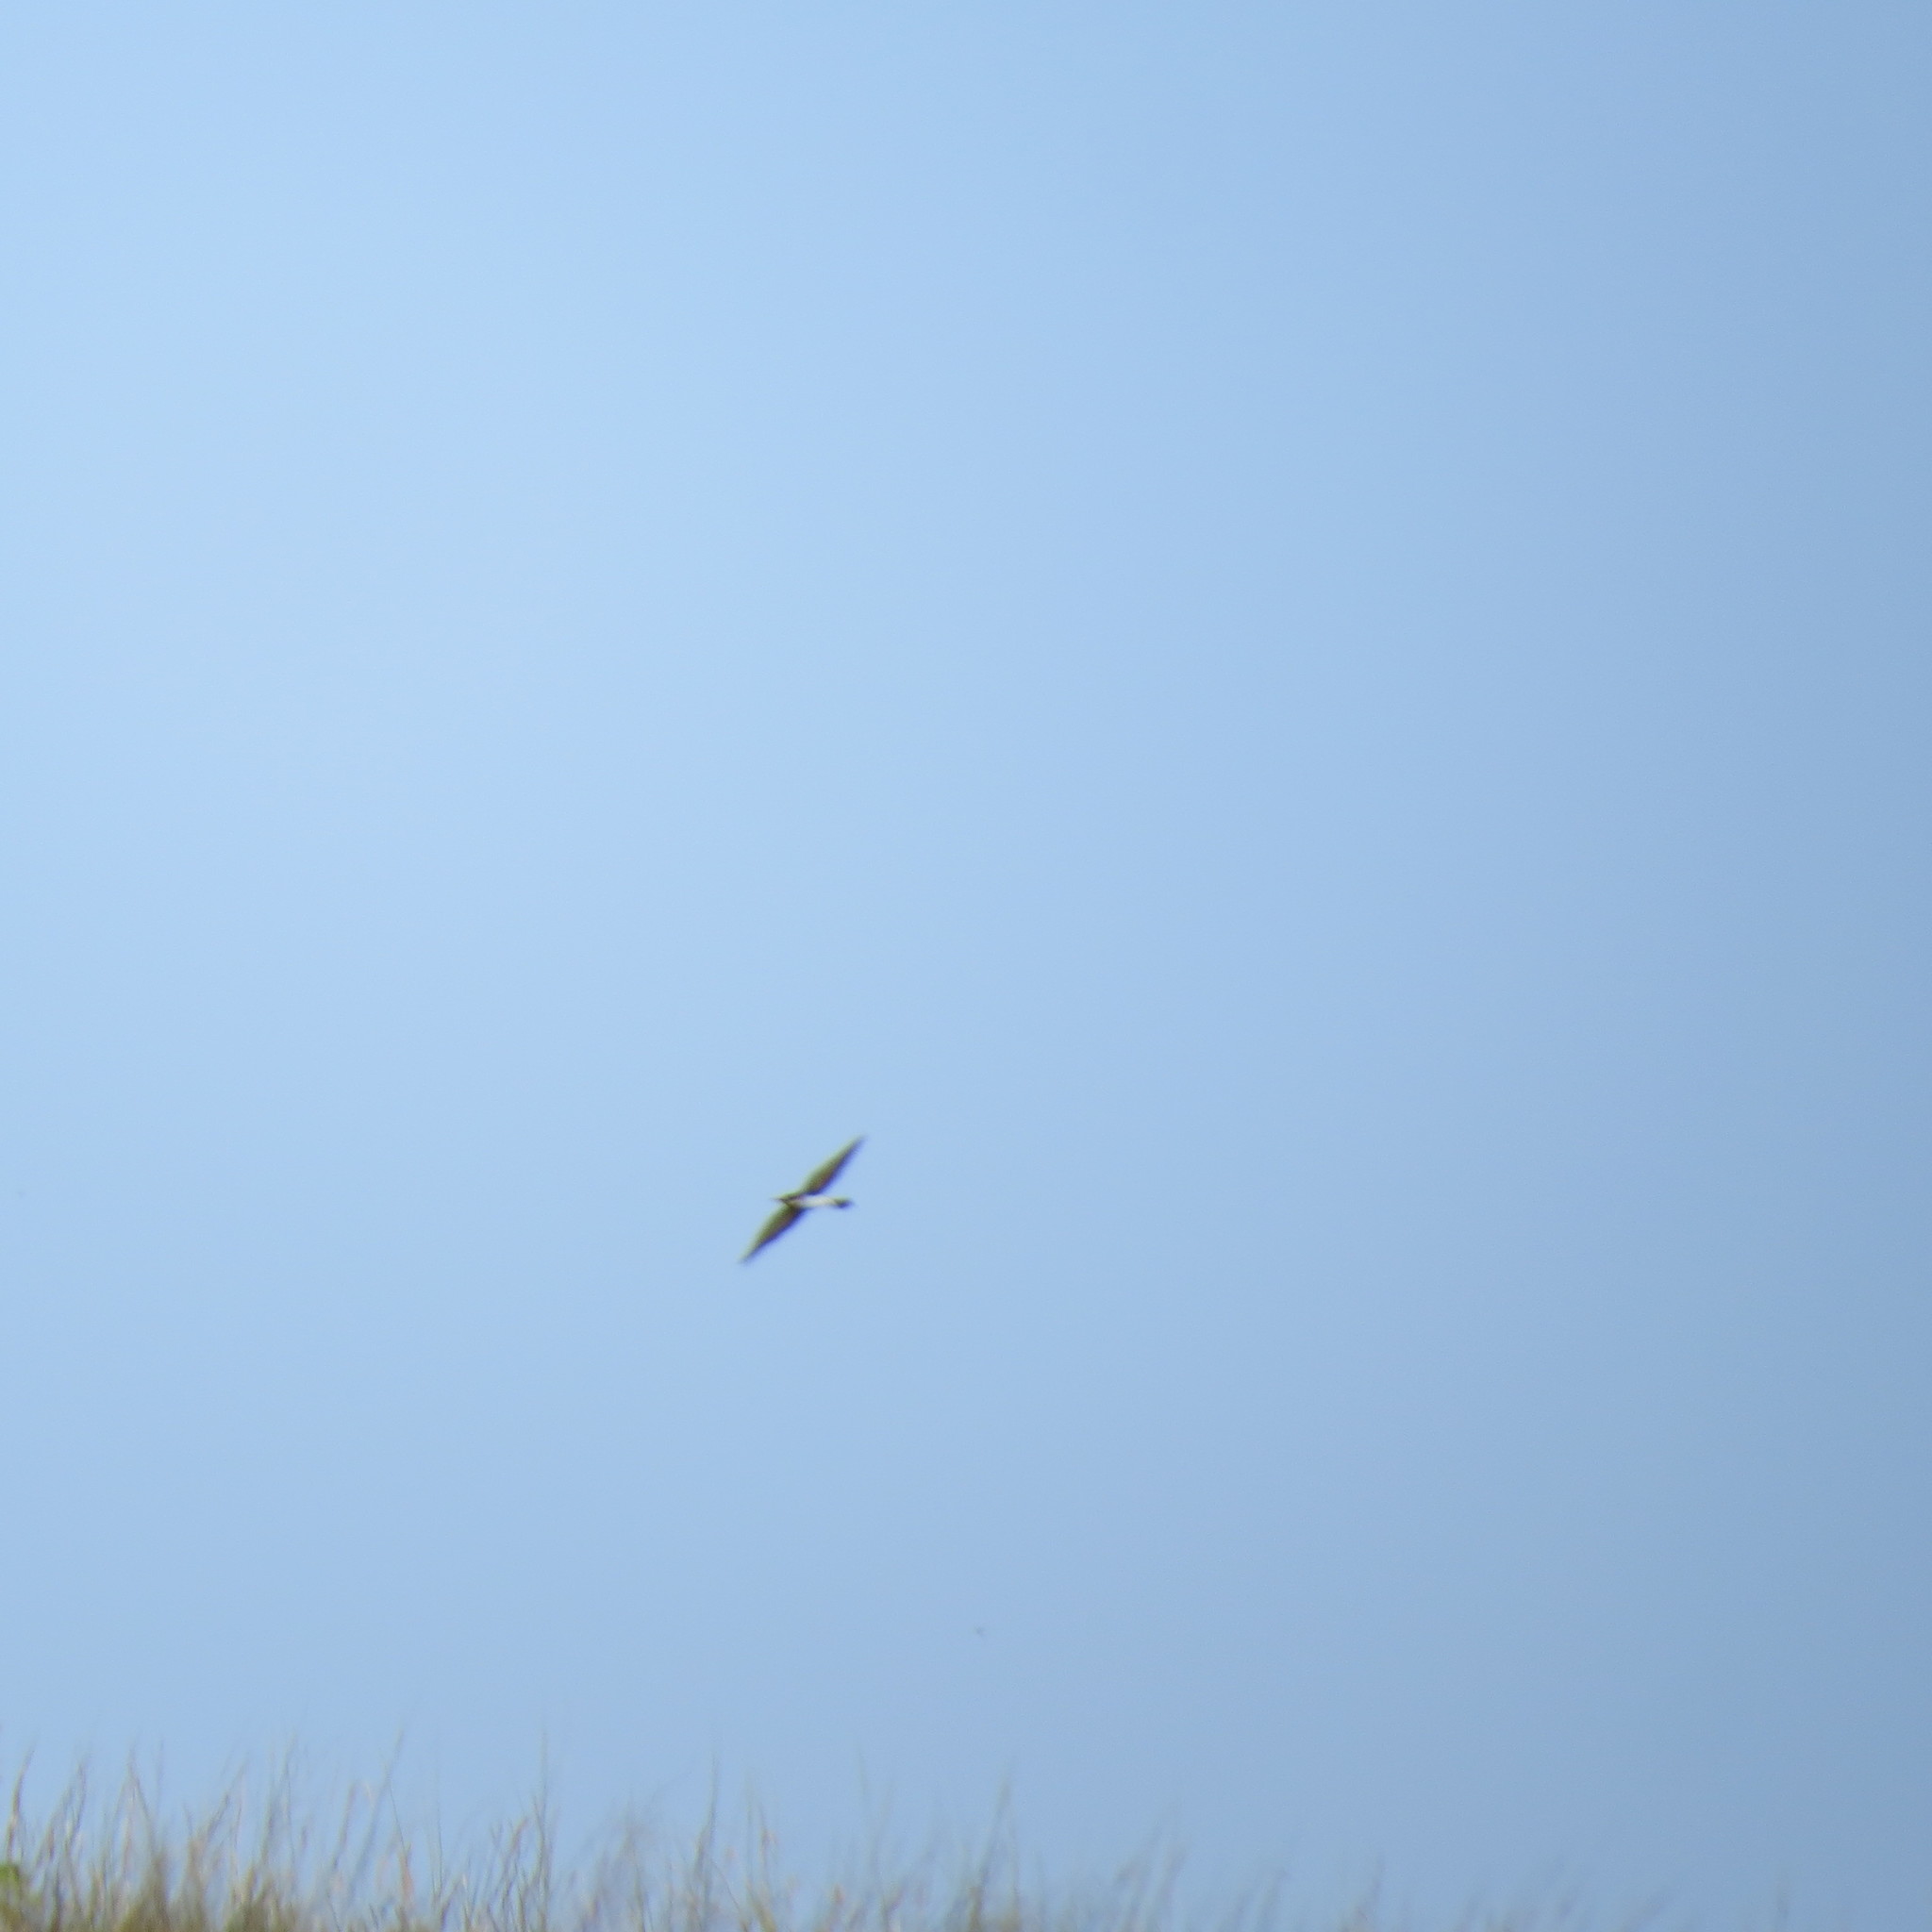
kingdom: Animalia
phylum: Chordata
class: Aves
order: Coraciiformes
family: Meropidae
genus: Merops
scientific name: Merops apiaster
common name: European bee-eater
